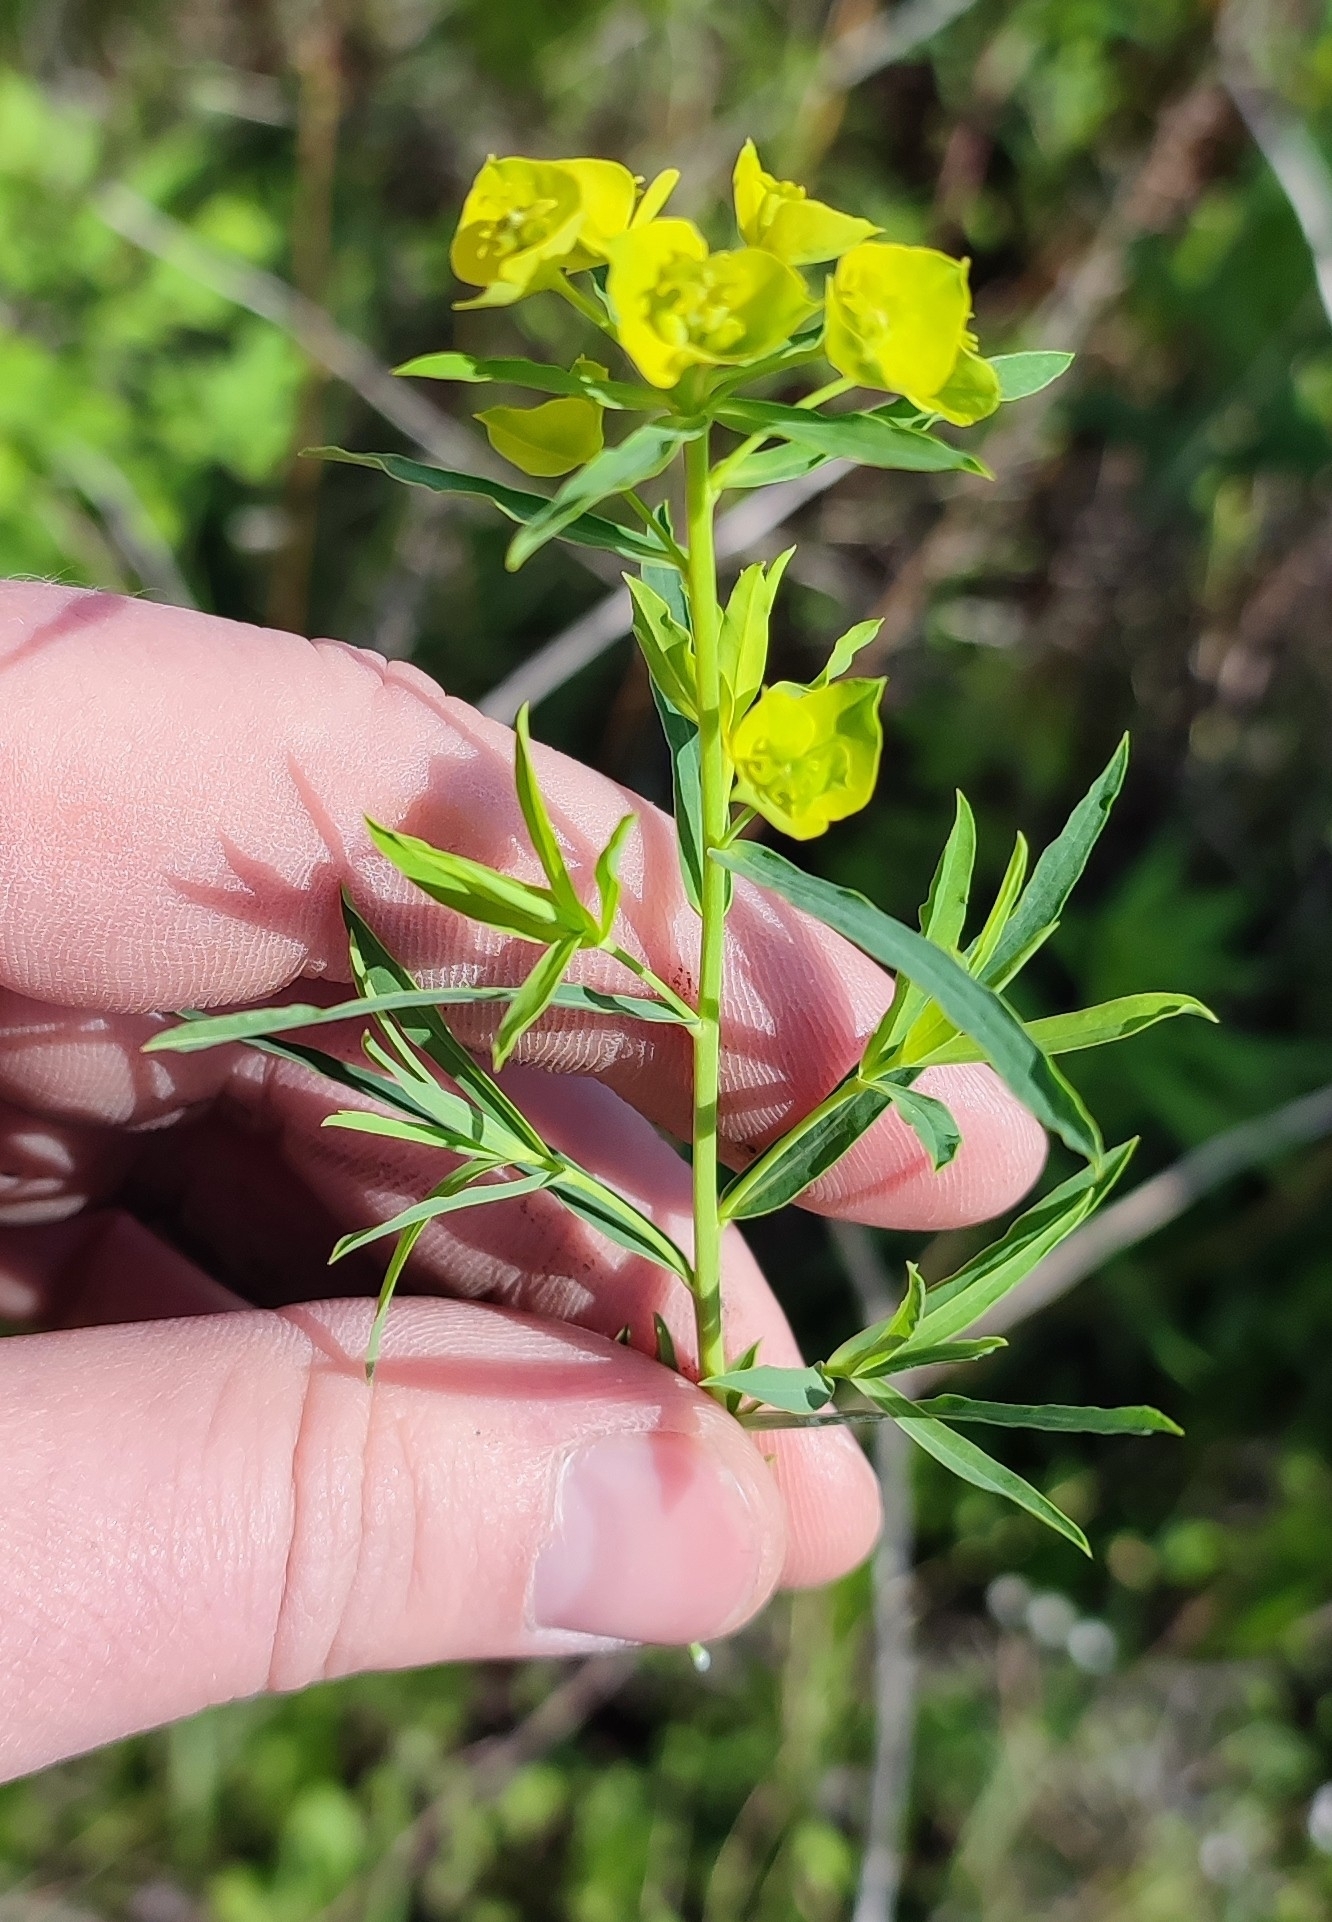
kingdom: Plantae
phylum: Tracheophyta
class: Magnoliopsida
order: Malpighiales
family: Euphorbiaceae
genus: Euphorbia
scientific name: Euphorbia virgata
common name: Leafy spurge
